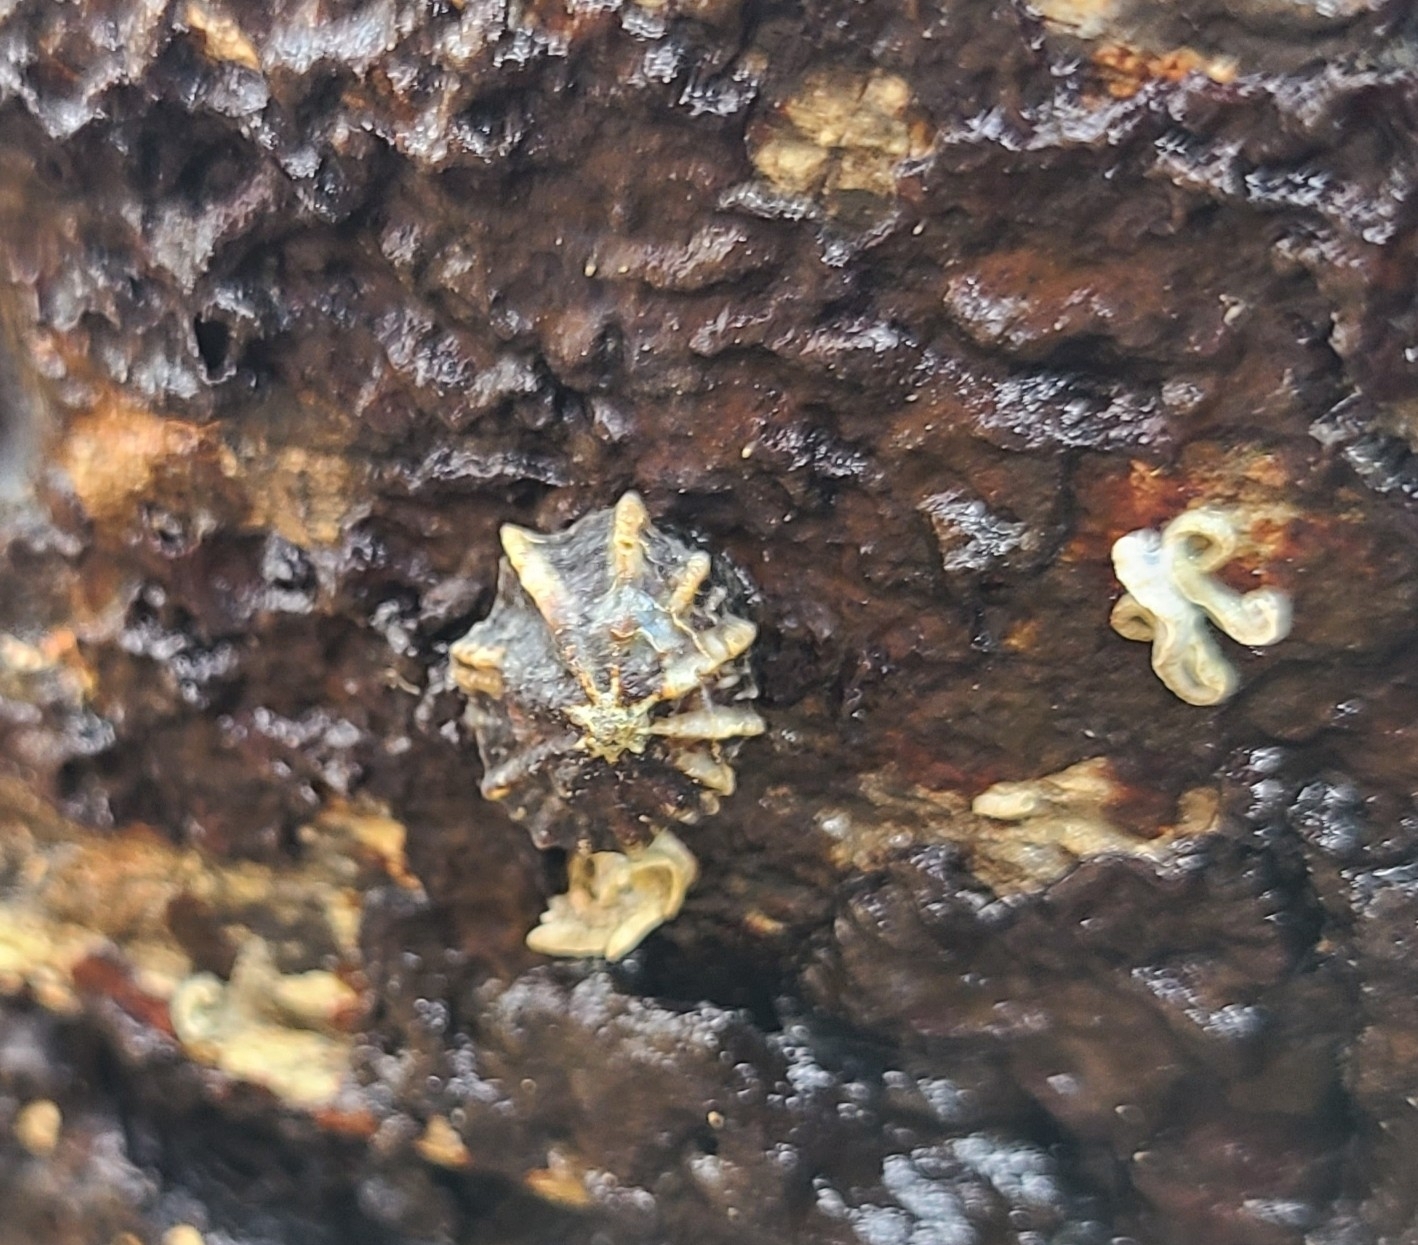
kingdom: Animalia
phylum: Mollusca
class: Gastropoda
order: Siphonariida
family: Siphonariidae
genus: Siphonaria
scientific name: Siphonaria australis
